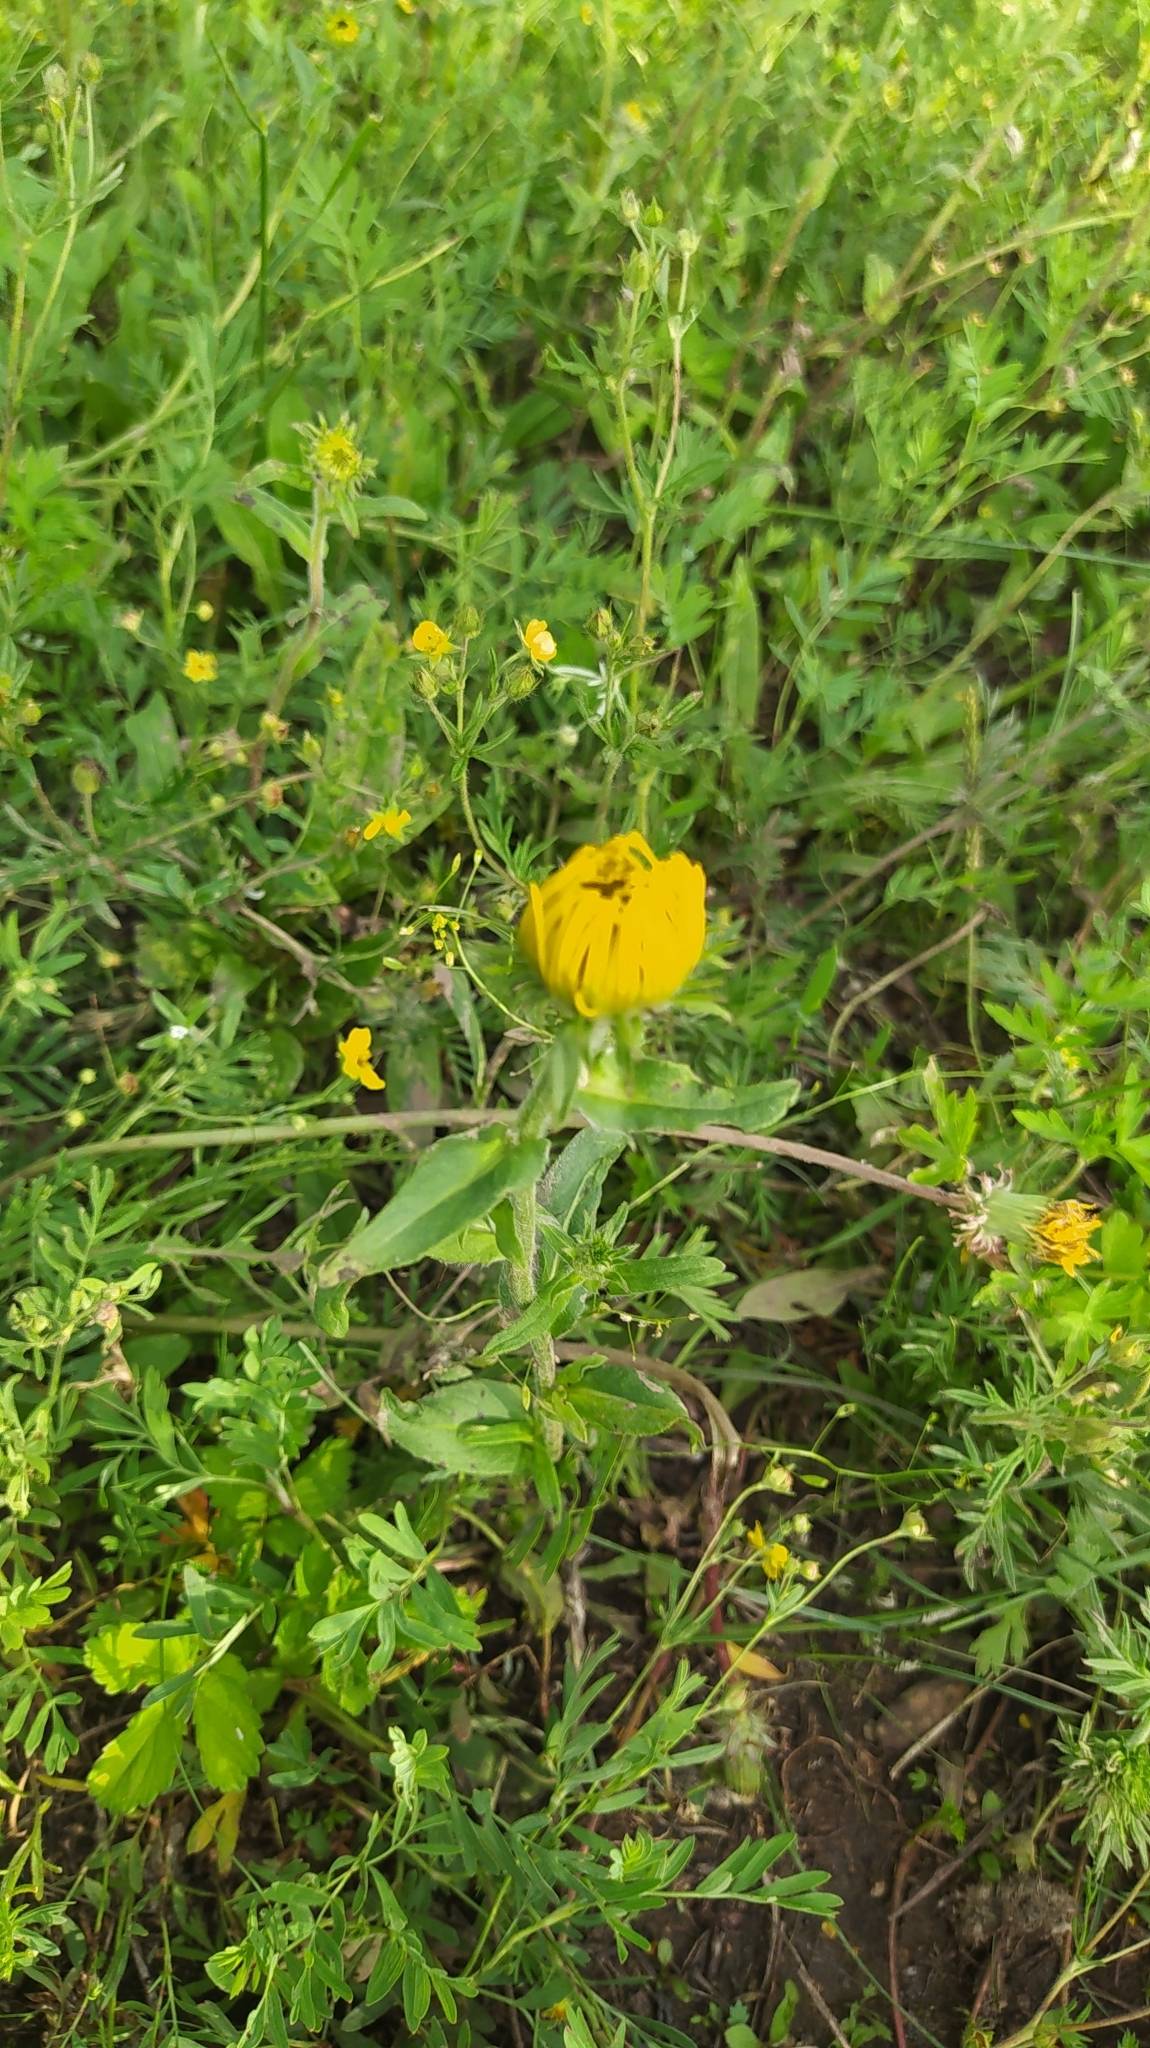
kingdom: Plantae
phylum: Tracheophyta
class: Magnoliopsida
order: Asterales
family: Asteraceae
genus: Pentanema
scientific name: Pentanema britannicum
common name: British elecampane
